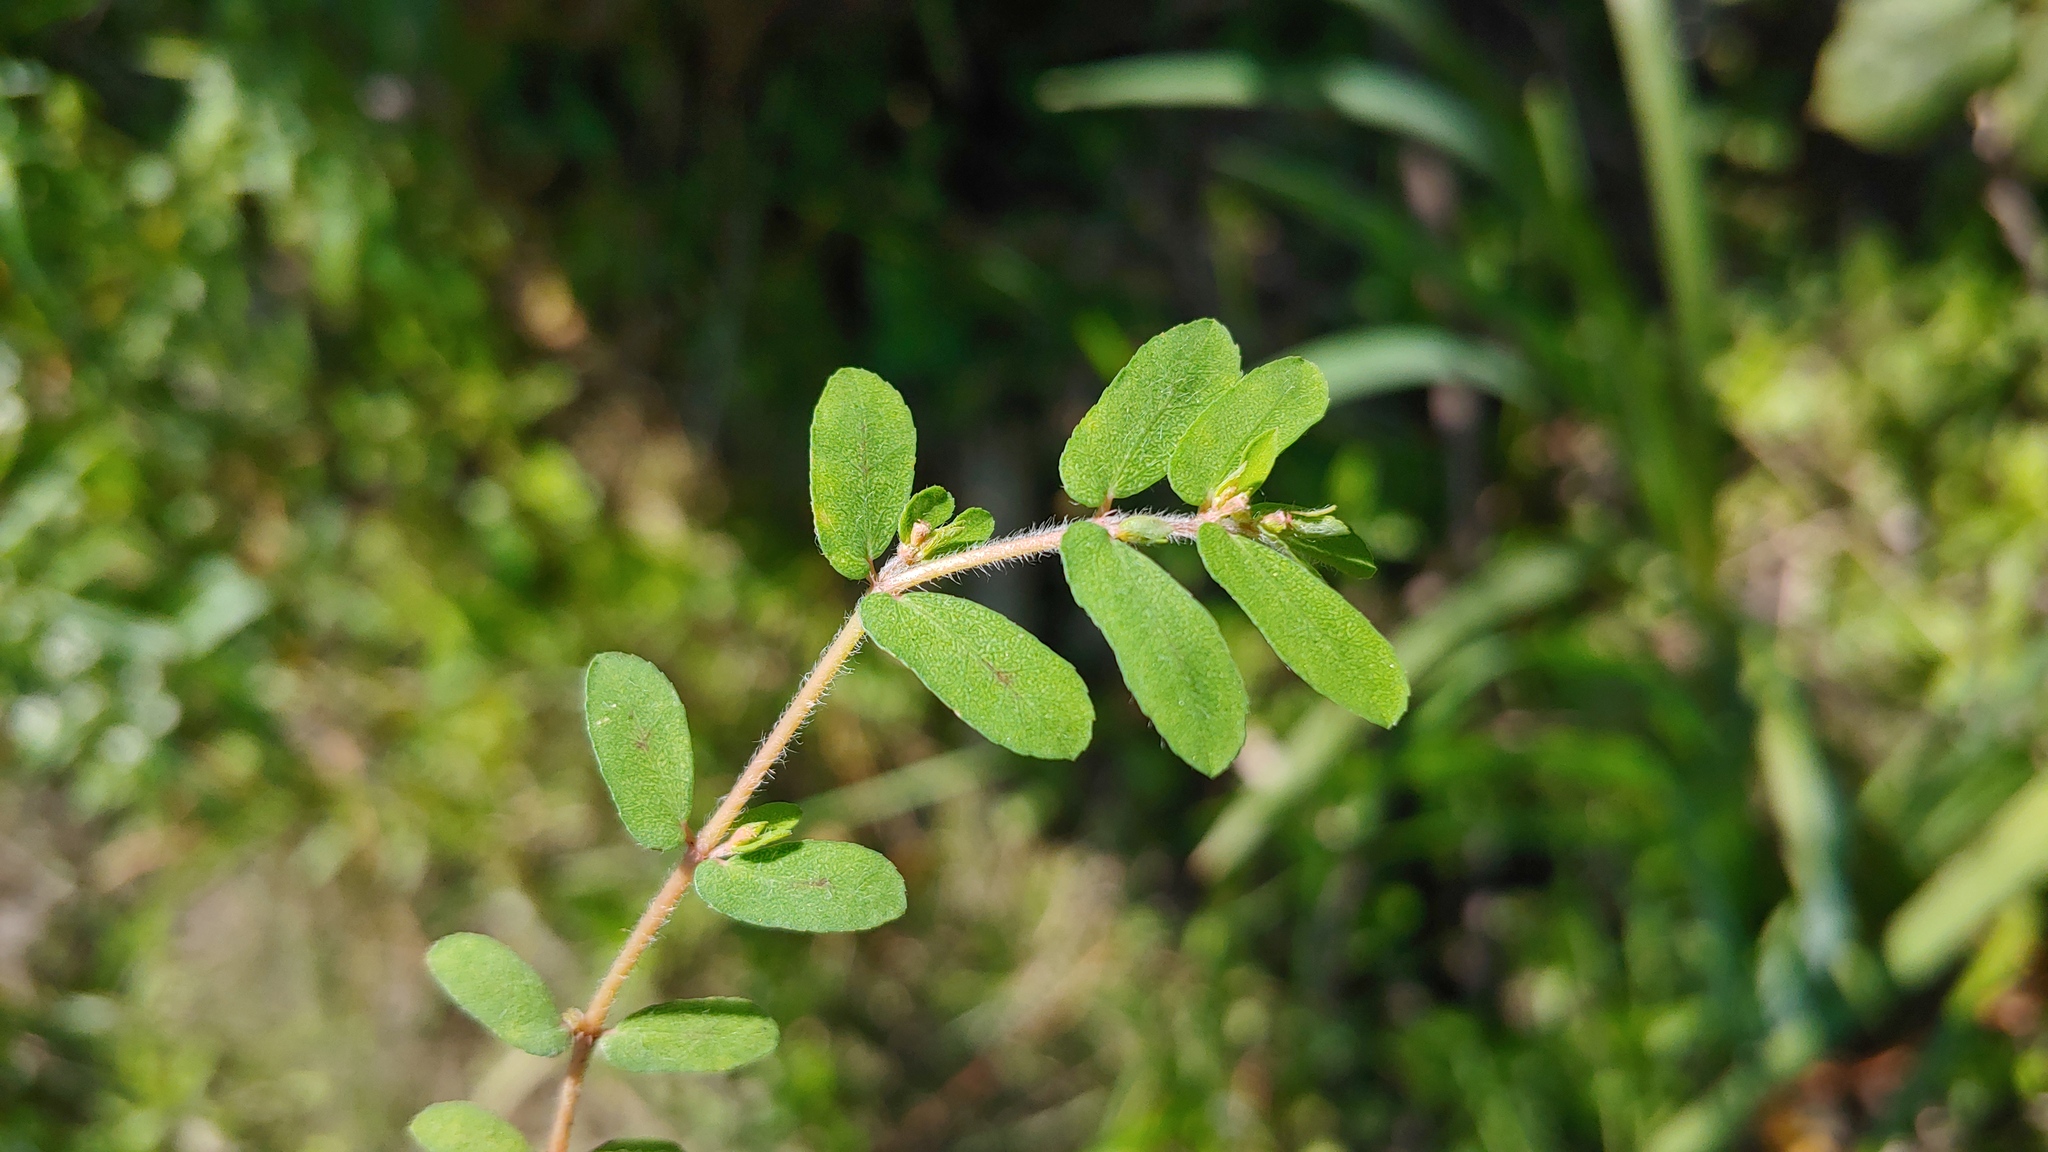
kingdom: Plantae
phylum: Tracheophyta
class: Magnoliopsida
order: Malpighiales
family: Euphorbiaceae
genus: Euphorbia
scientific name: Euphorbia maculata
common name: Spotted spurge
